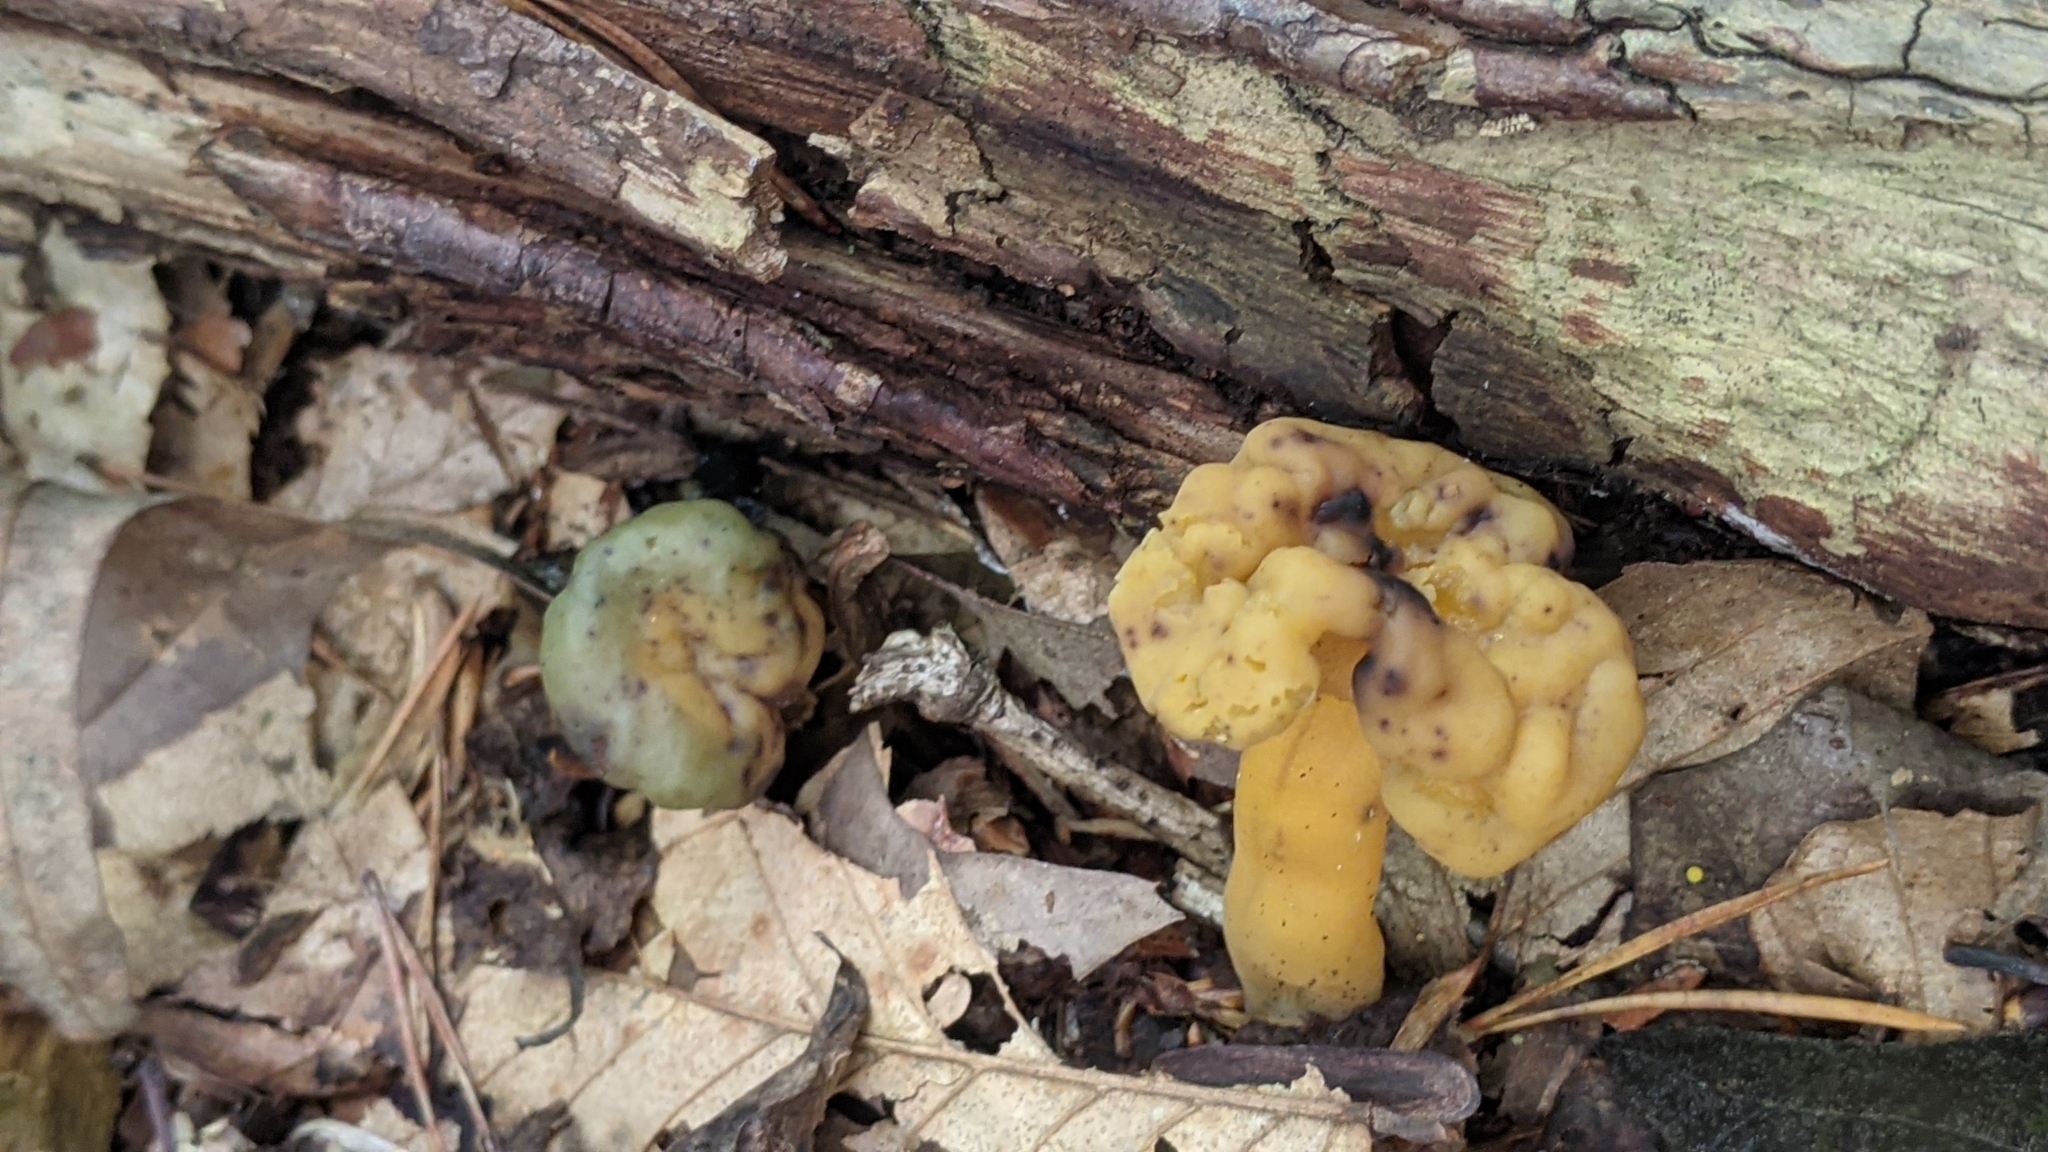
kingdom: Fungi
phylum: Ascomycota
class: Leotiomycetes
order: Leotiales
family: Leotiaceae
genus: Leotia
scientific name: Leotia lubrica
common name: Jellybaby
